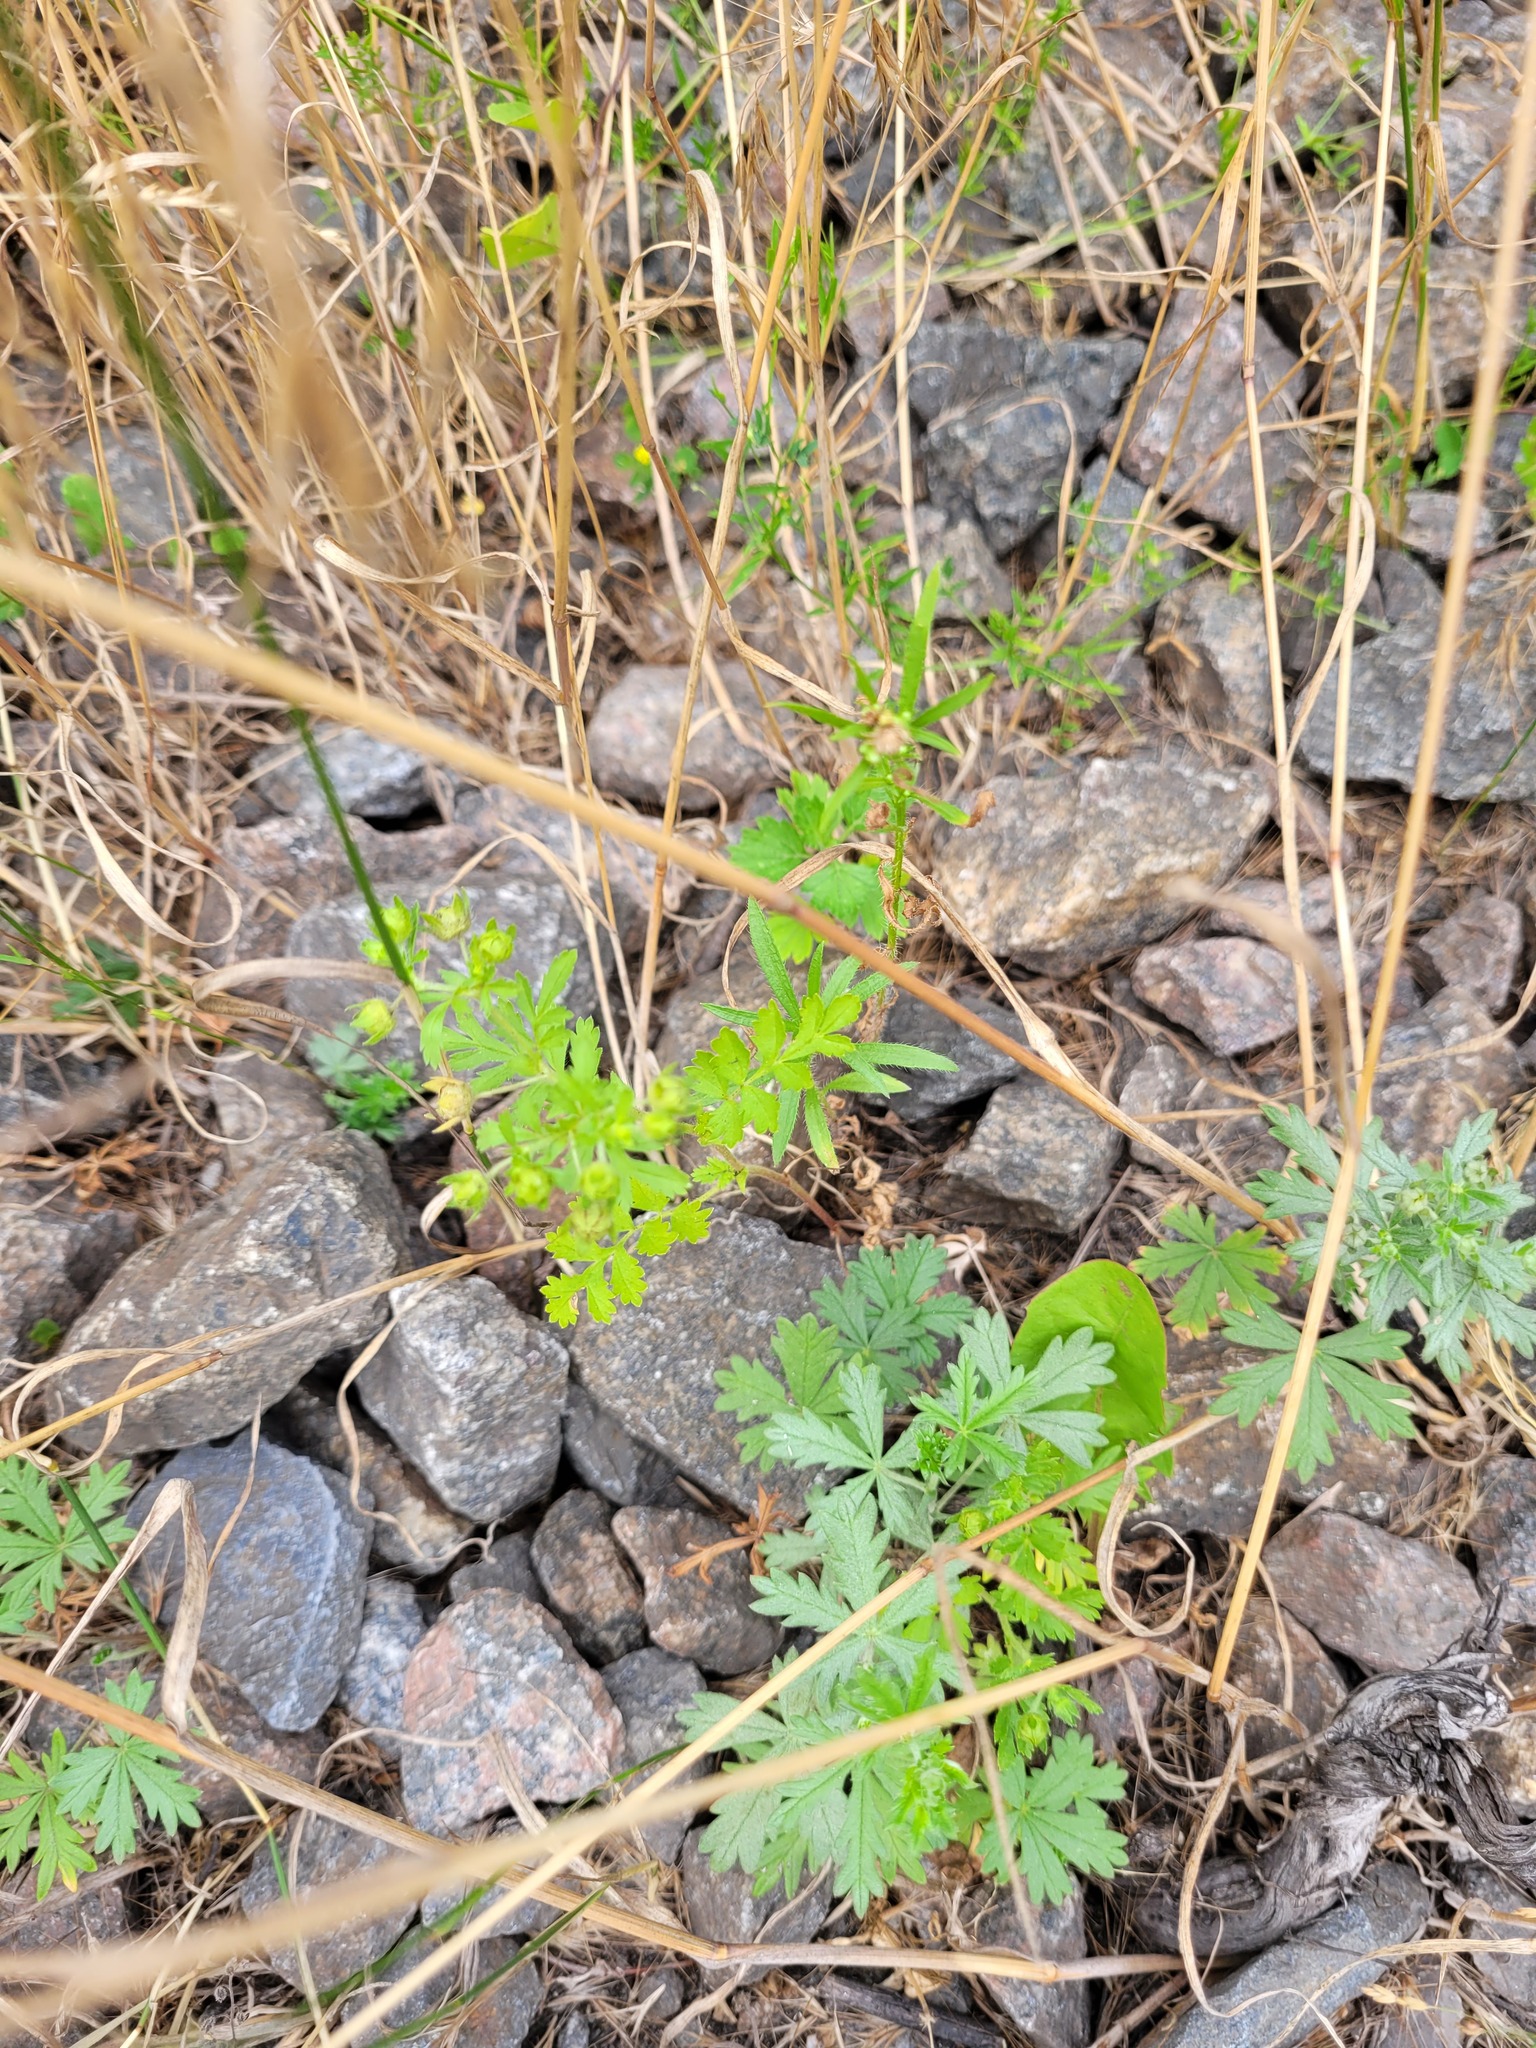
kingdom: Plantae
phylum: Tracheophyta
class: Magnoliopsida
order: Rosales
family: Rosaceae
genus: Potentilla
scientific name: Potentilla supina
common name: Prostrate cinquefoil
